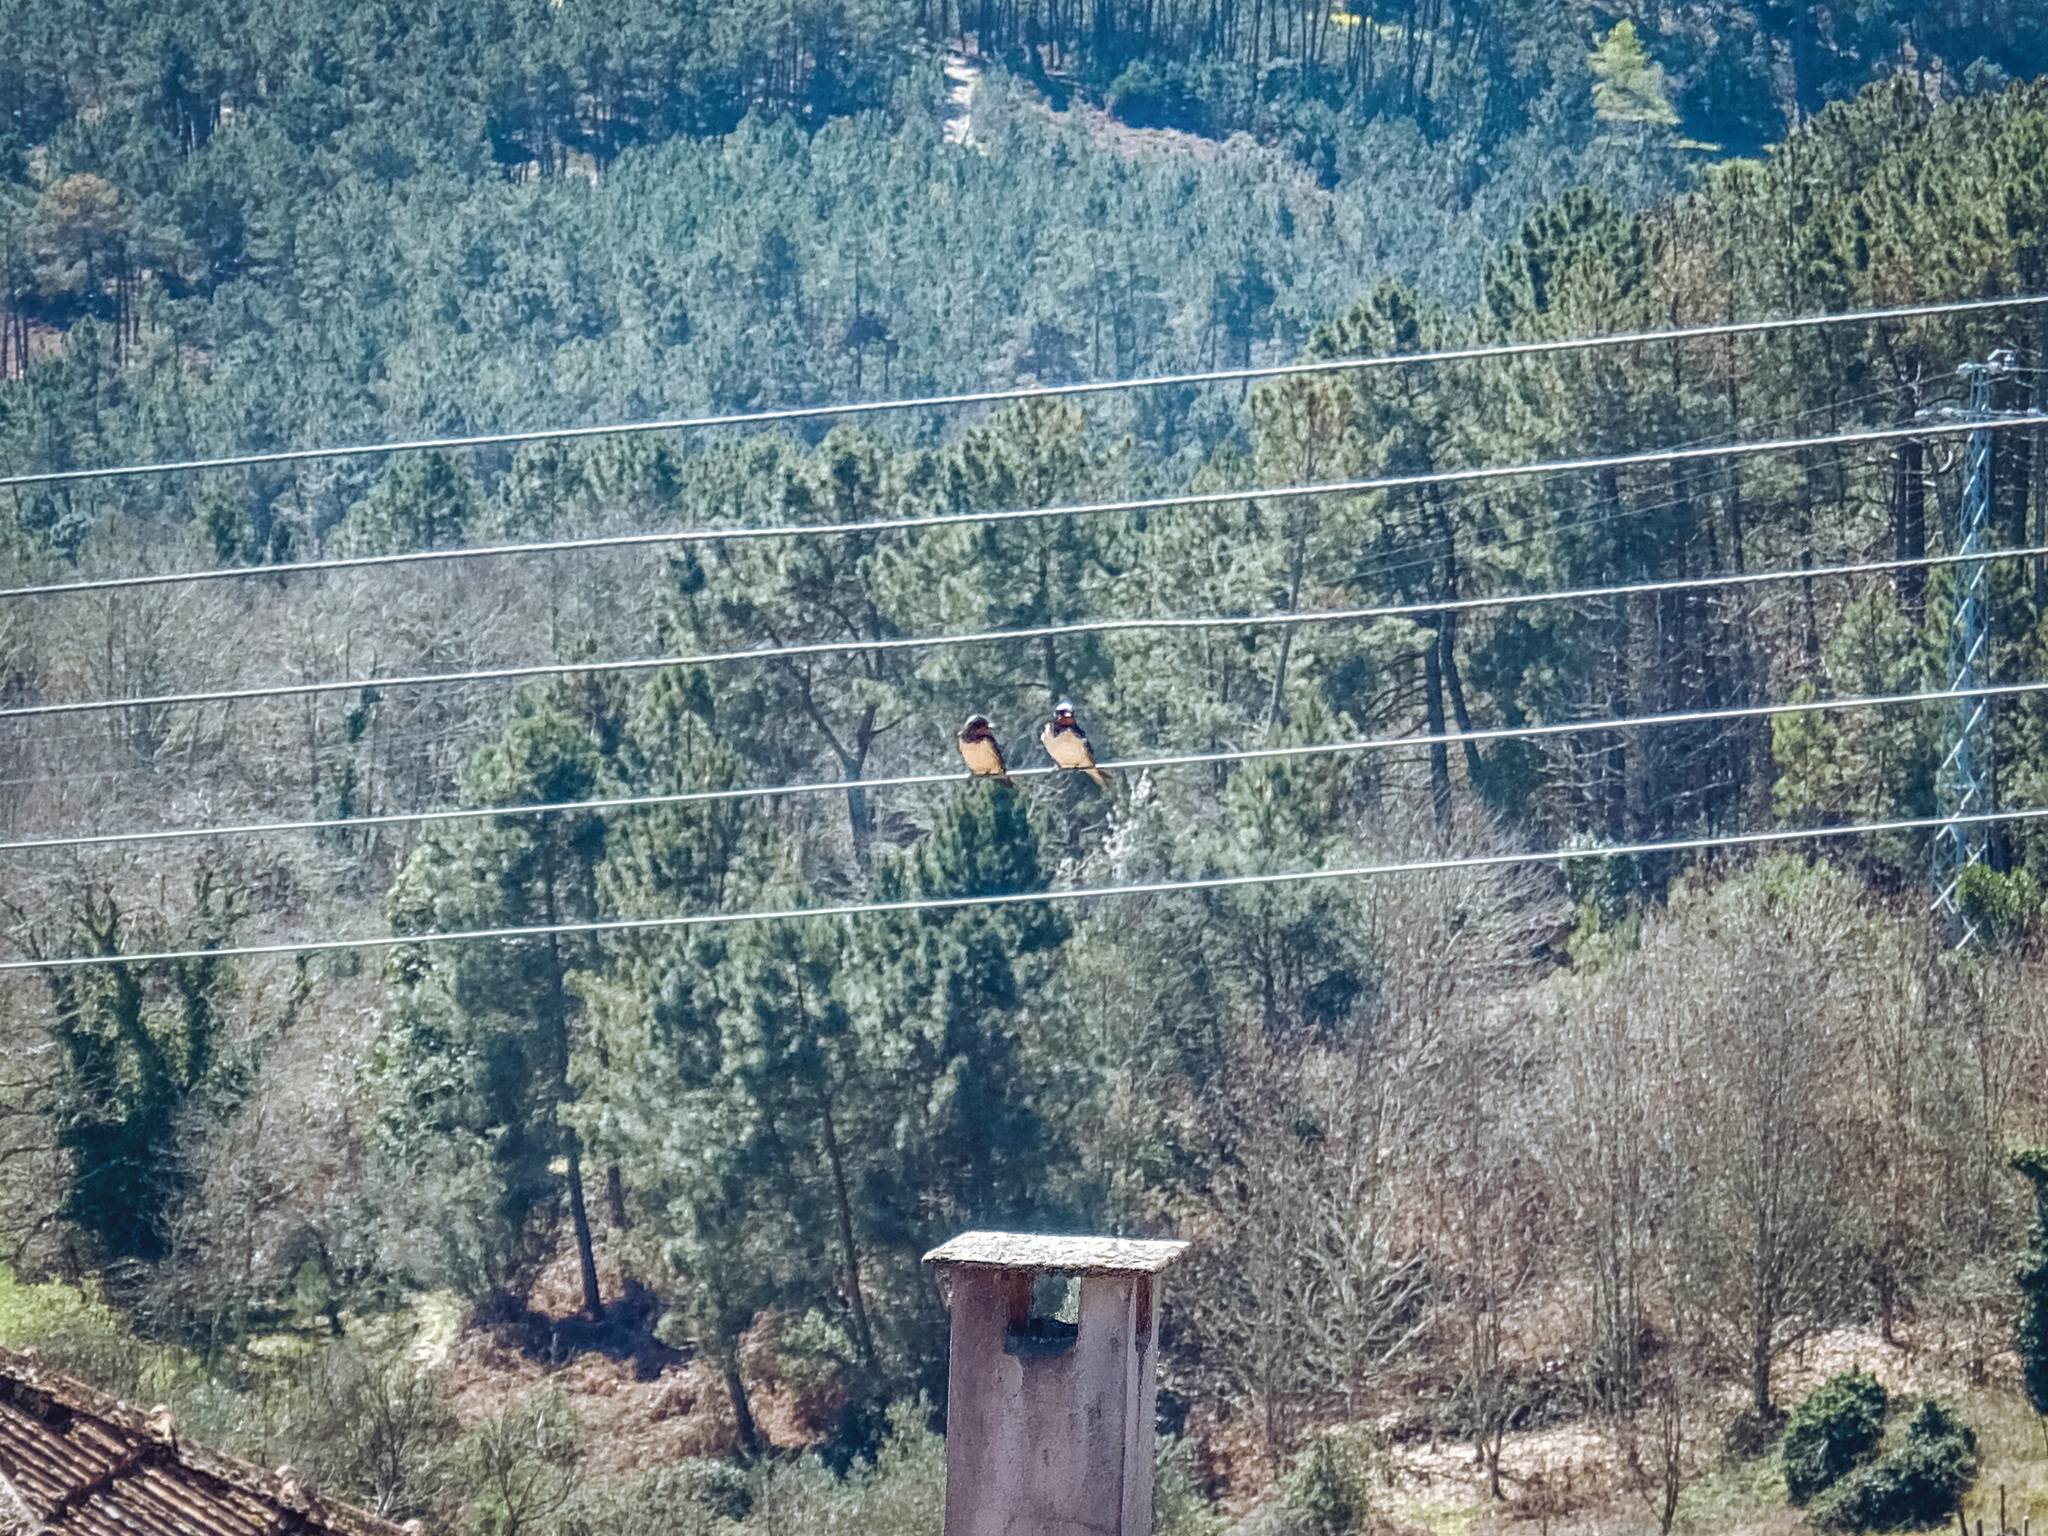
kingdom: Animalia
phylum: Chordata
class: Aves
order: Passeriformes
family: Hirundinidae
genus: Hirundo
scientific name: Hirundo rustica
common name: Barn swallow
